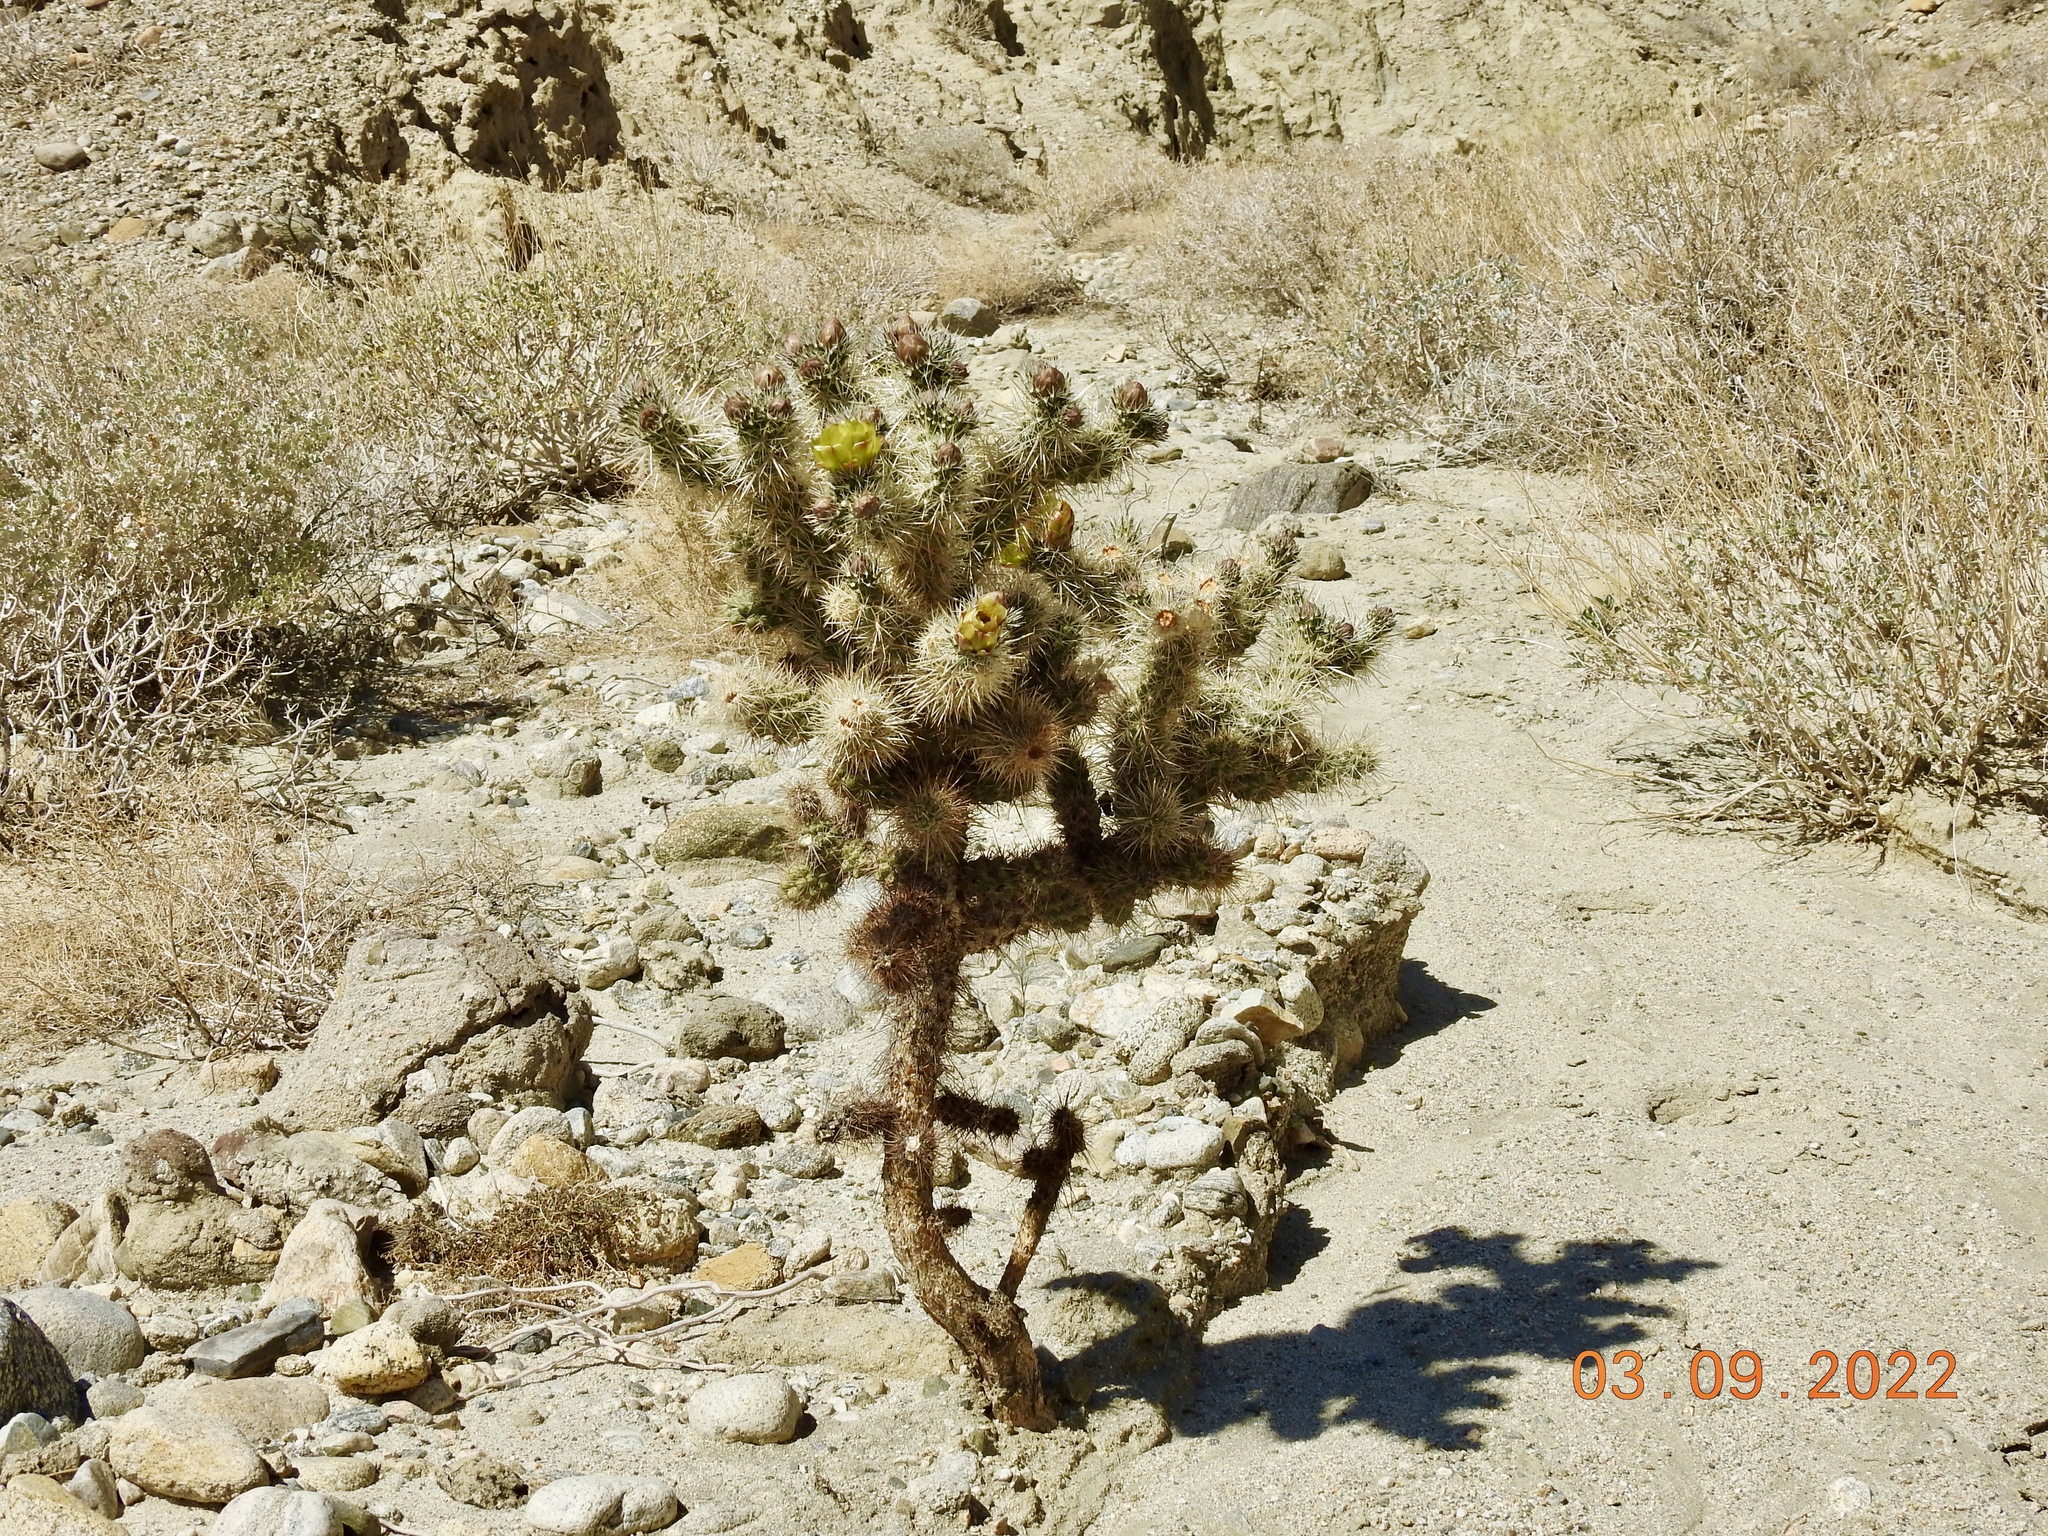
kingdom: Plantae
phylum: Tracheophyta
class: Magnoliopsida
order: Caryophyllales
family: Cactaceae
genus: Cylindropuntia
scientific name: Cylindropuntia echinocarpa
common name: Ground cholla
